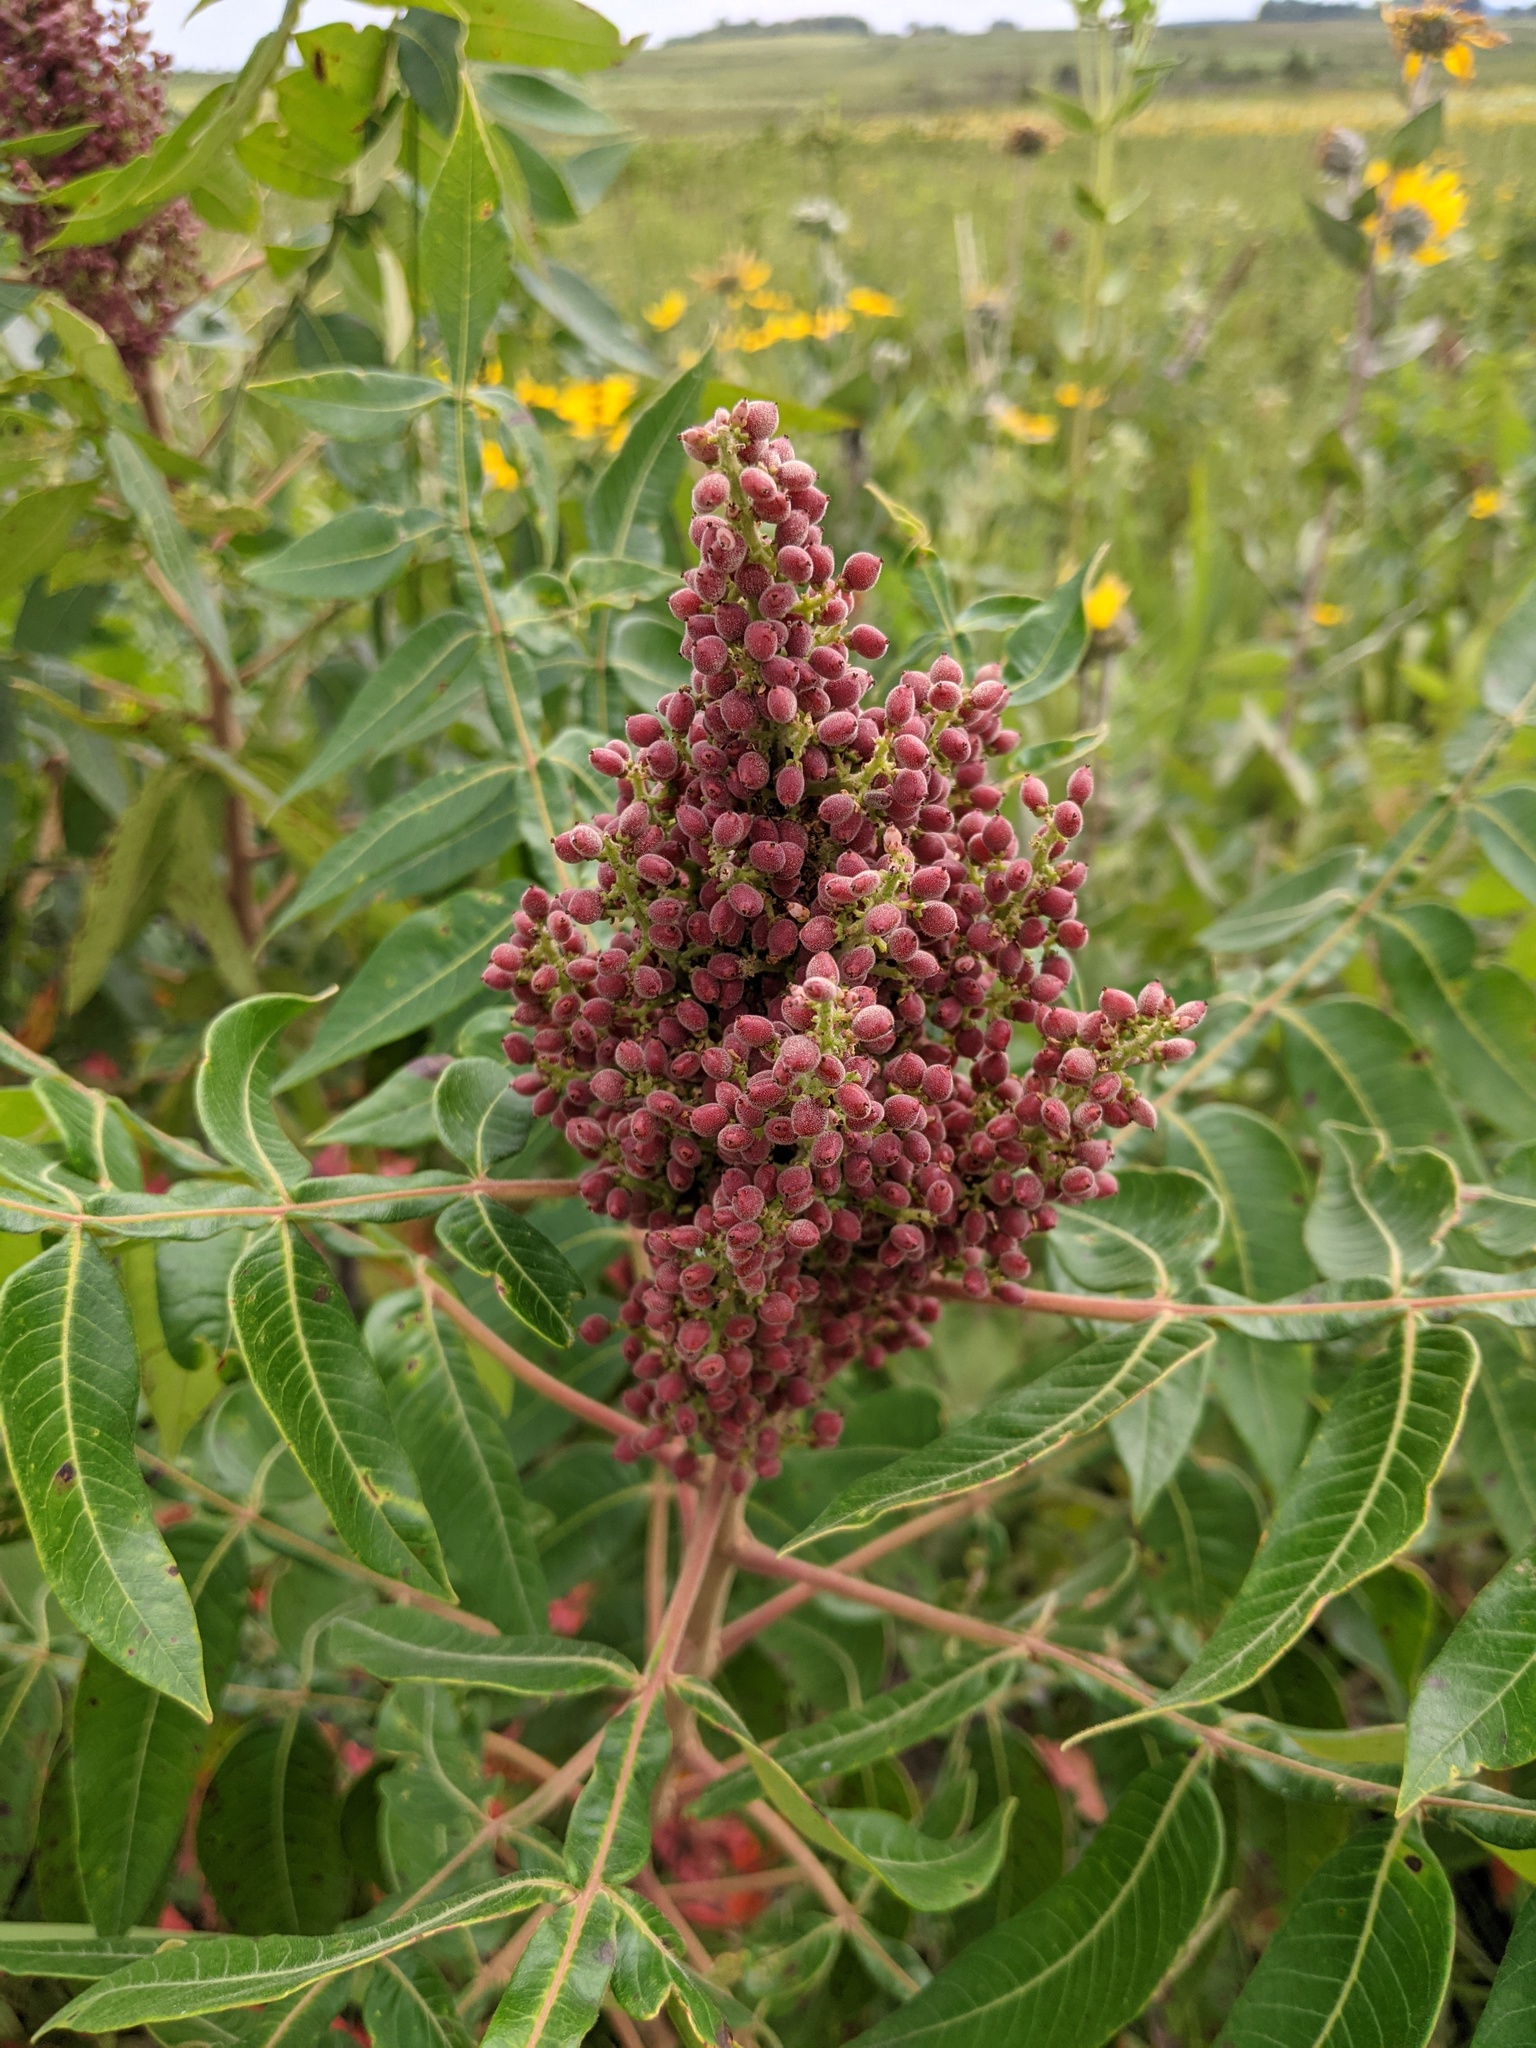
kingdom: Plantae
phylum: Tracheophyta
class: Magnoliopsida
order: Sapindales
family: Anacardiaceae
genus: Rhus
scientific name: Rhus copallina
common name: Shining sumac
